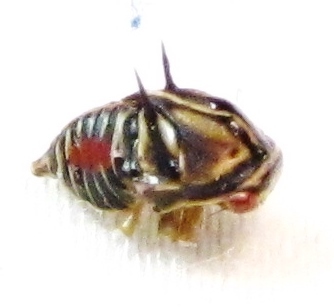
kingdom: Animalia
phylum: Arthropoda
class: Insecta
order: Hemiptera
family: Membracidae
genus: Platycotis
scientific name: Platycotis vittatus
